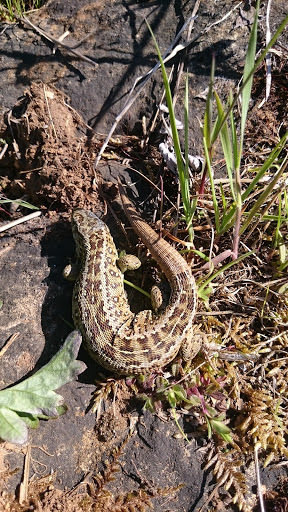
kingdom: Animalia
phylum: Chordata
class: Squamata
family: Lacertidae
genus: Lacerta
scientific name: Lacerta agilis
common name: Sand lizard
